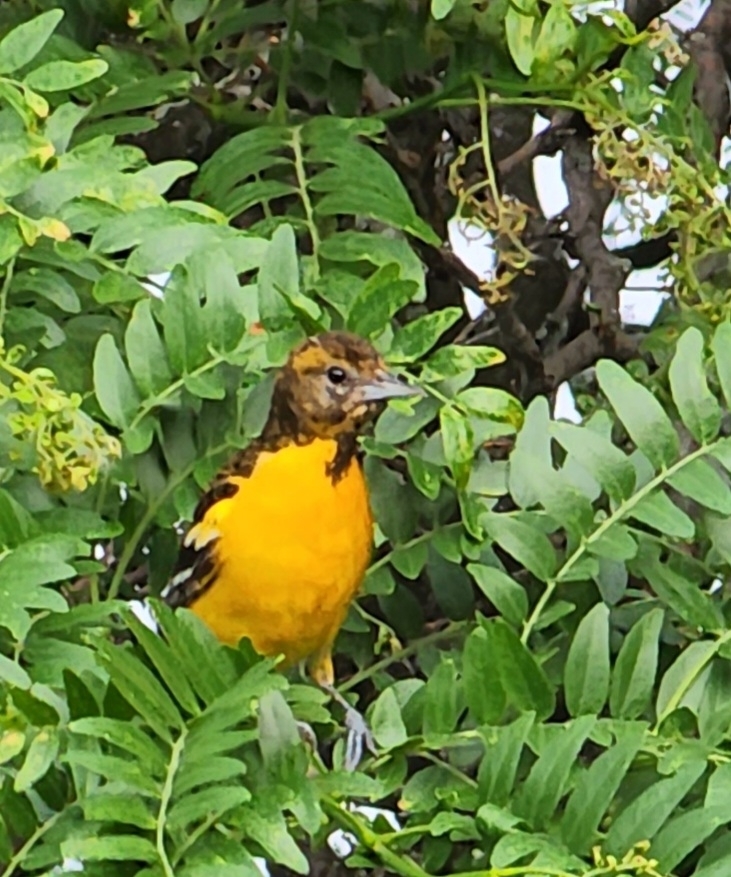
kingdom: Animalia
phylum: Chordata
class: Aves
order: Passeriformes
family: Icteridae
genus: Icterus
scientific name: Icterus galbula
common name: Baltimore oriole
